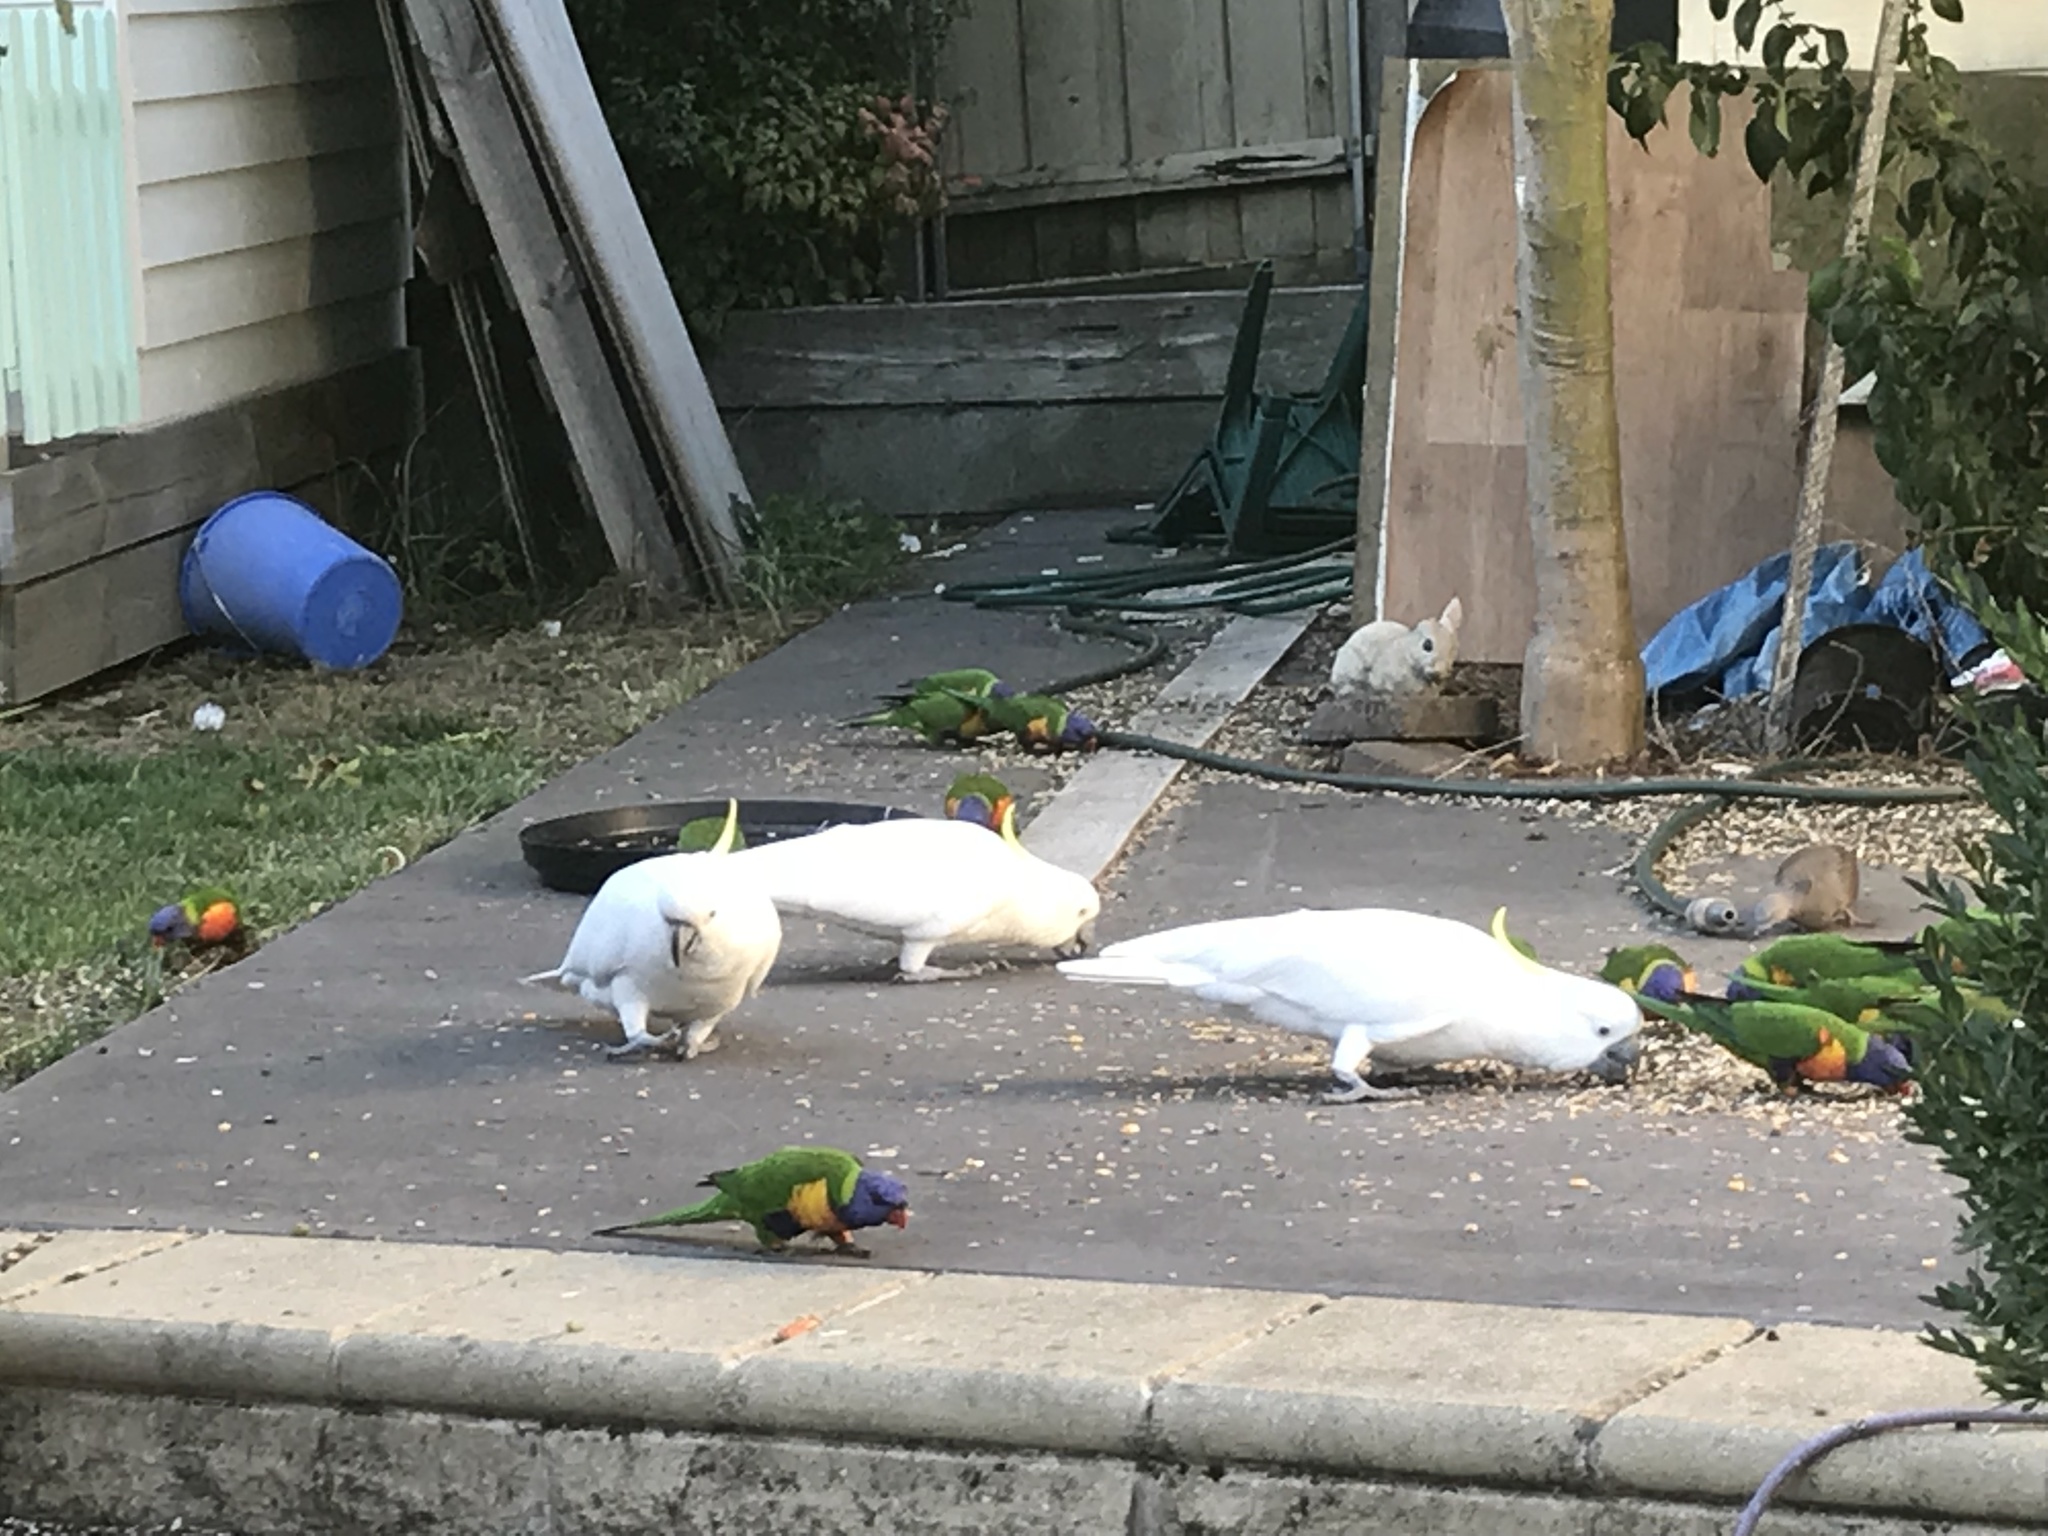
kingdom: Animalia
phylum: Chordata
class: Aves
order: Psittaciformes
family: Psittacidae
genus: Cacatua
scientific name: Cacatua galerita
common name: Sulphur-crested cockatoo
